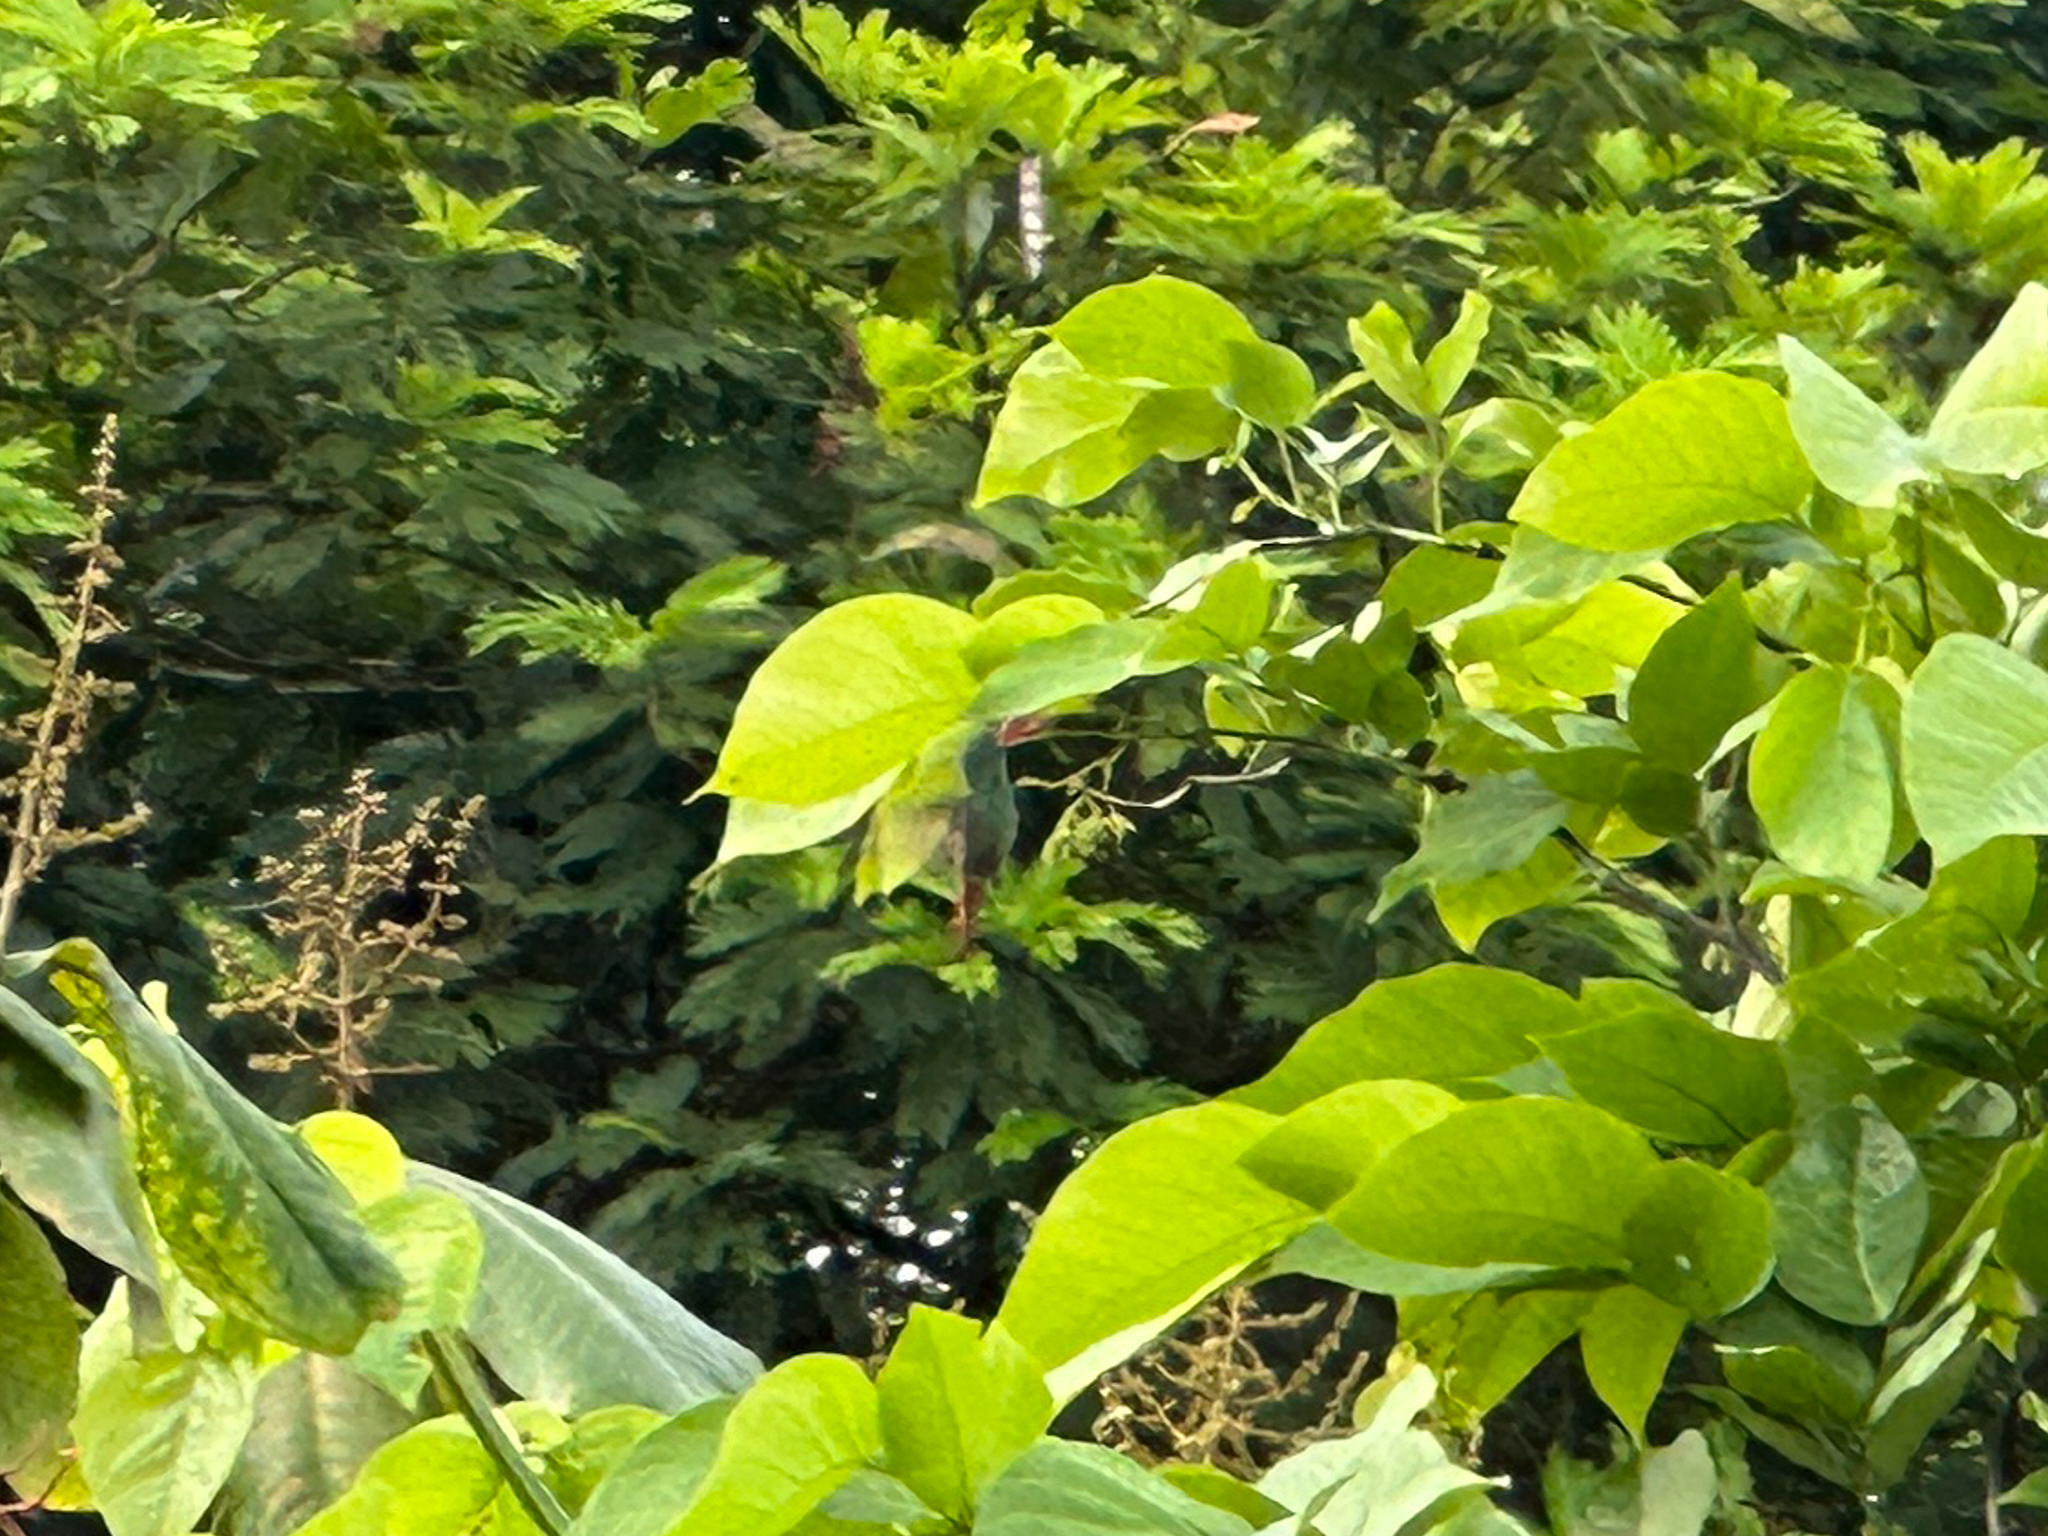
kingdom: Animalia
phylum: Chordata
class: Aves
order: Apodiformes
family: Trochilidae
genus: Amazilia
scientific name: Amazilia tzacatl
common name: Rufous-tailed hummingbird
